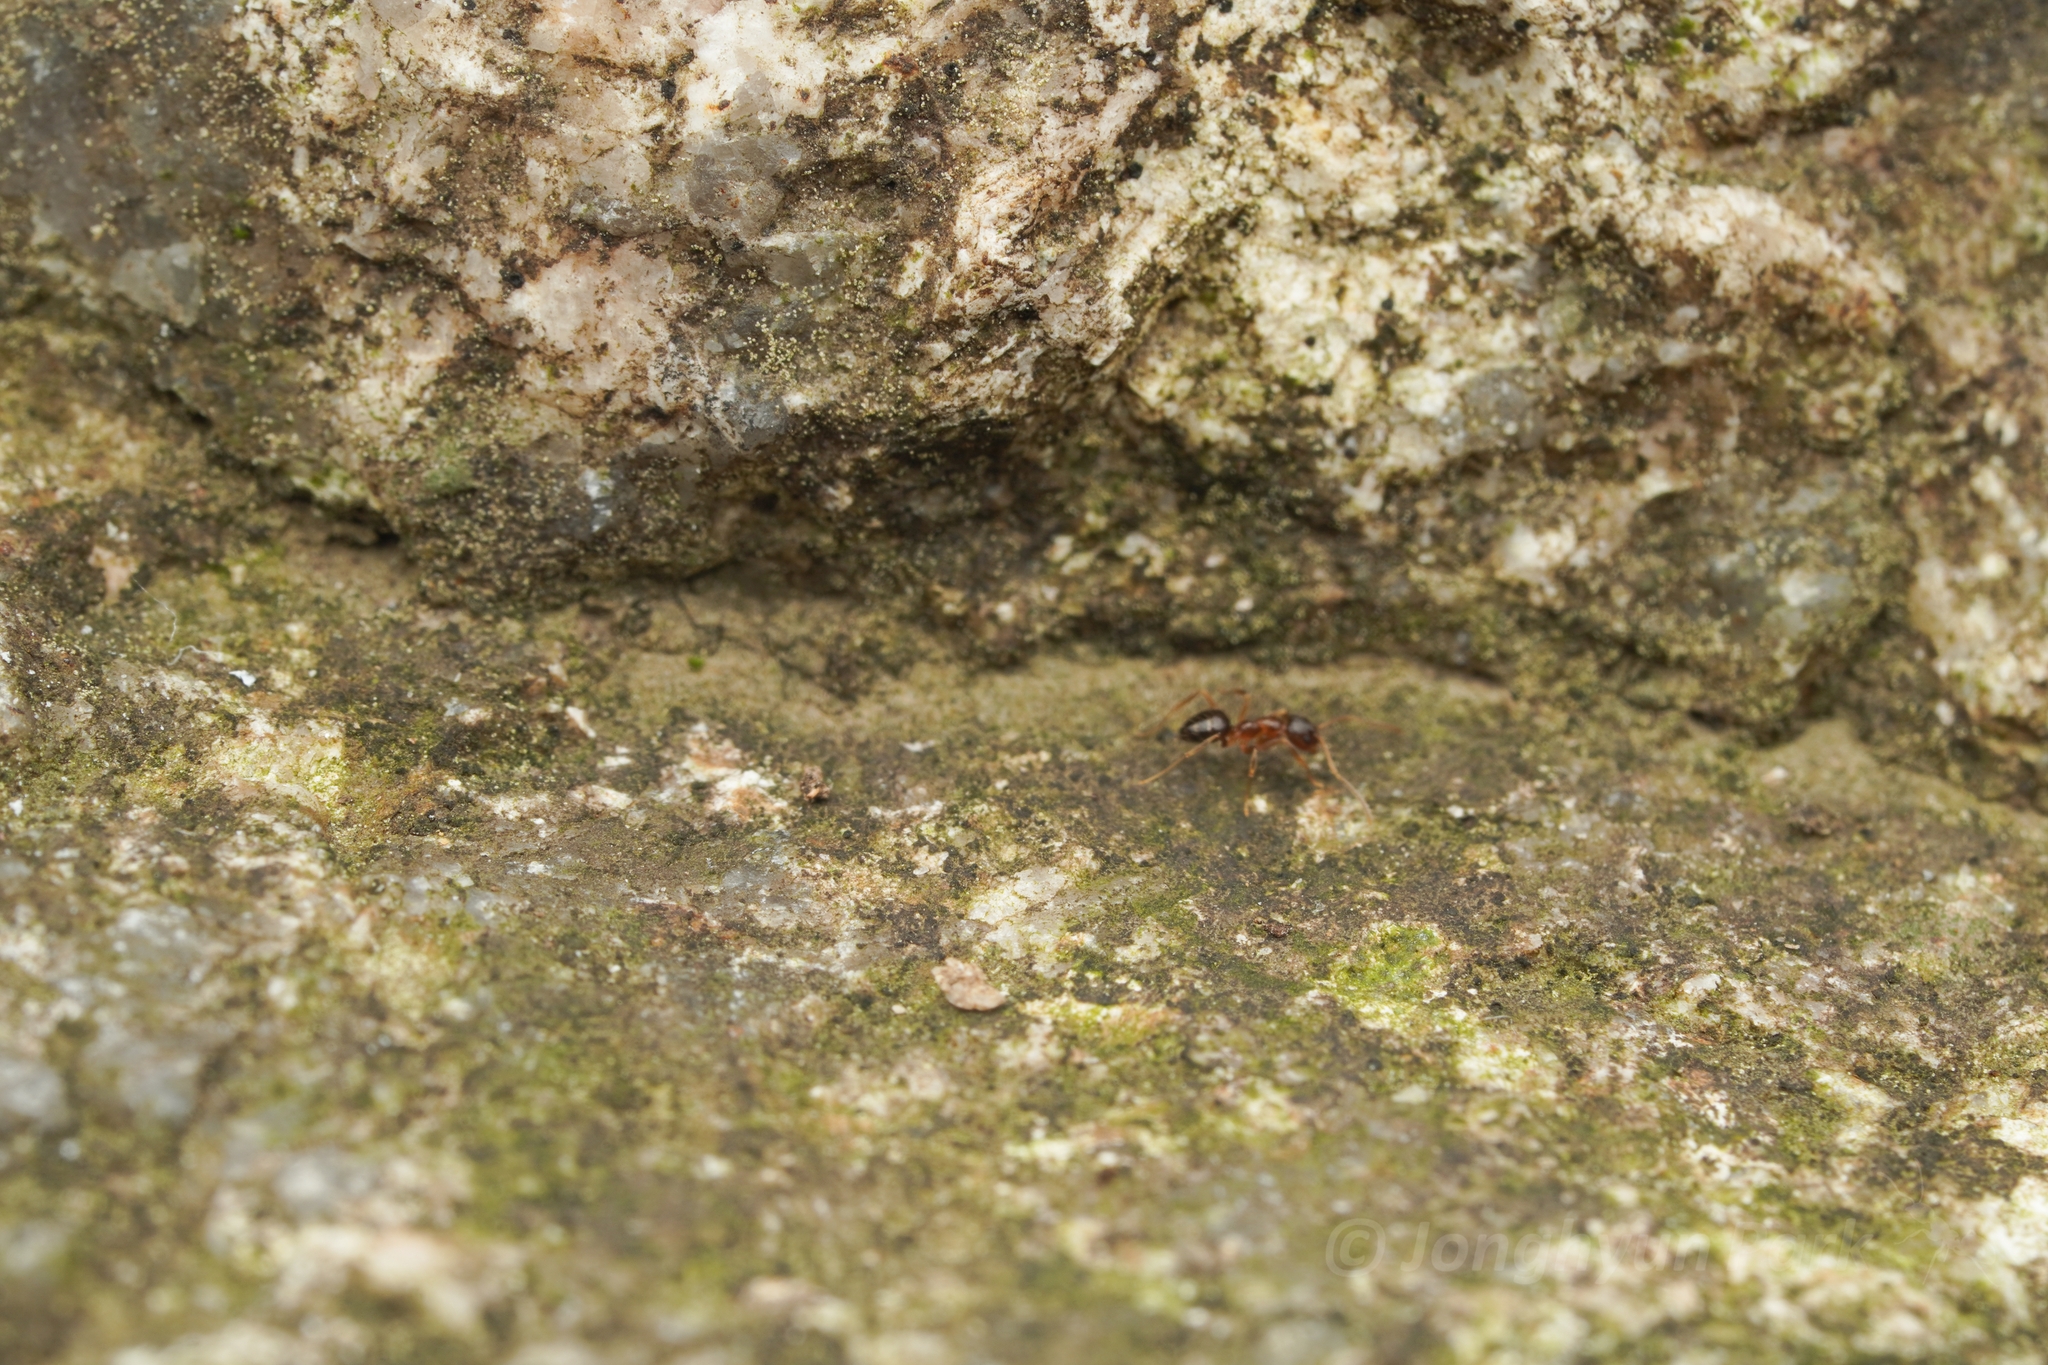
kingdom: Animalia
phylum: Arthropoda
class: Insecta
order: Hymenoptera
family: Formicidae
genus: Paratrechina
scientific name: Paratrechina flavipes
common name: Eastern asian formicine ant
